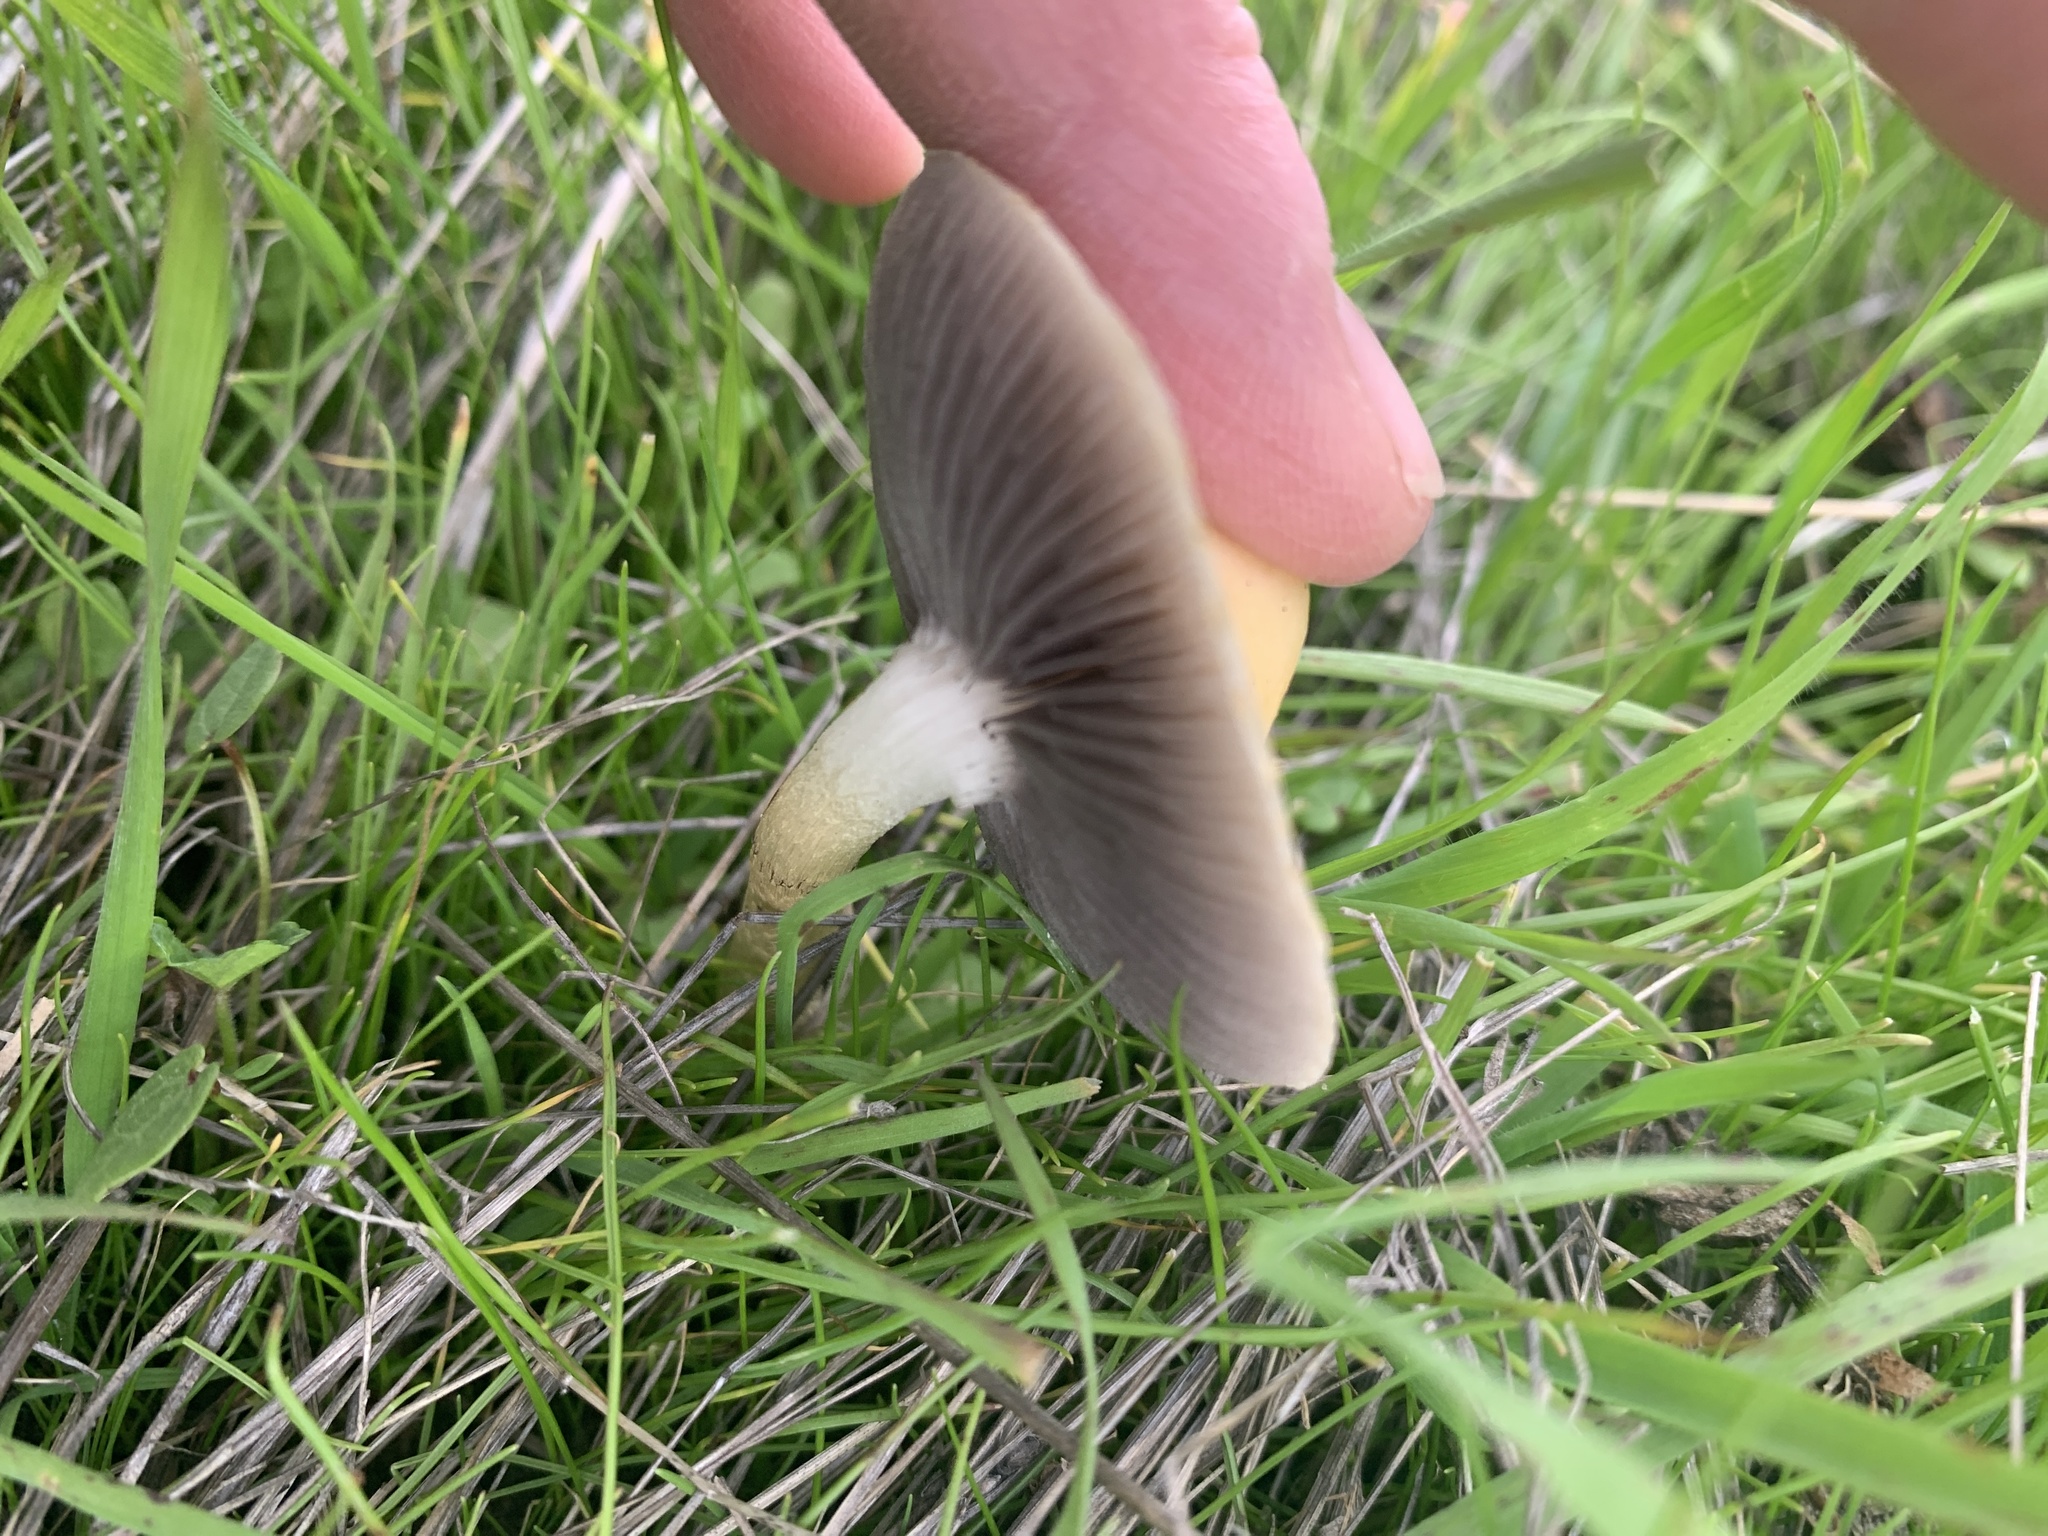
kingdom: Fungi
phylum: Basidiomycota
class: Agaricomycetes
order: Agaricales
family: Strophariaceae
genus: Leratiomyces
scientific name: Leratiomyces percevalii
